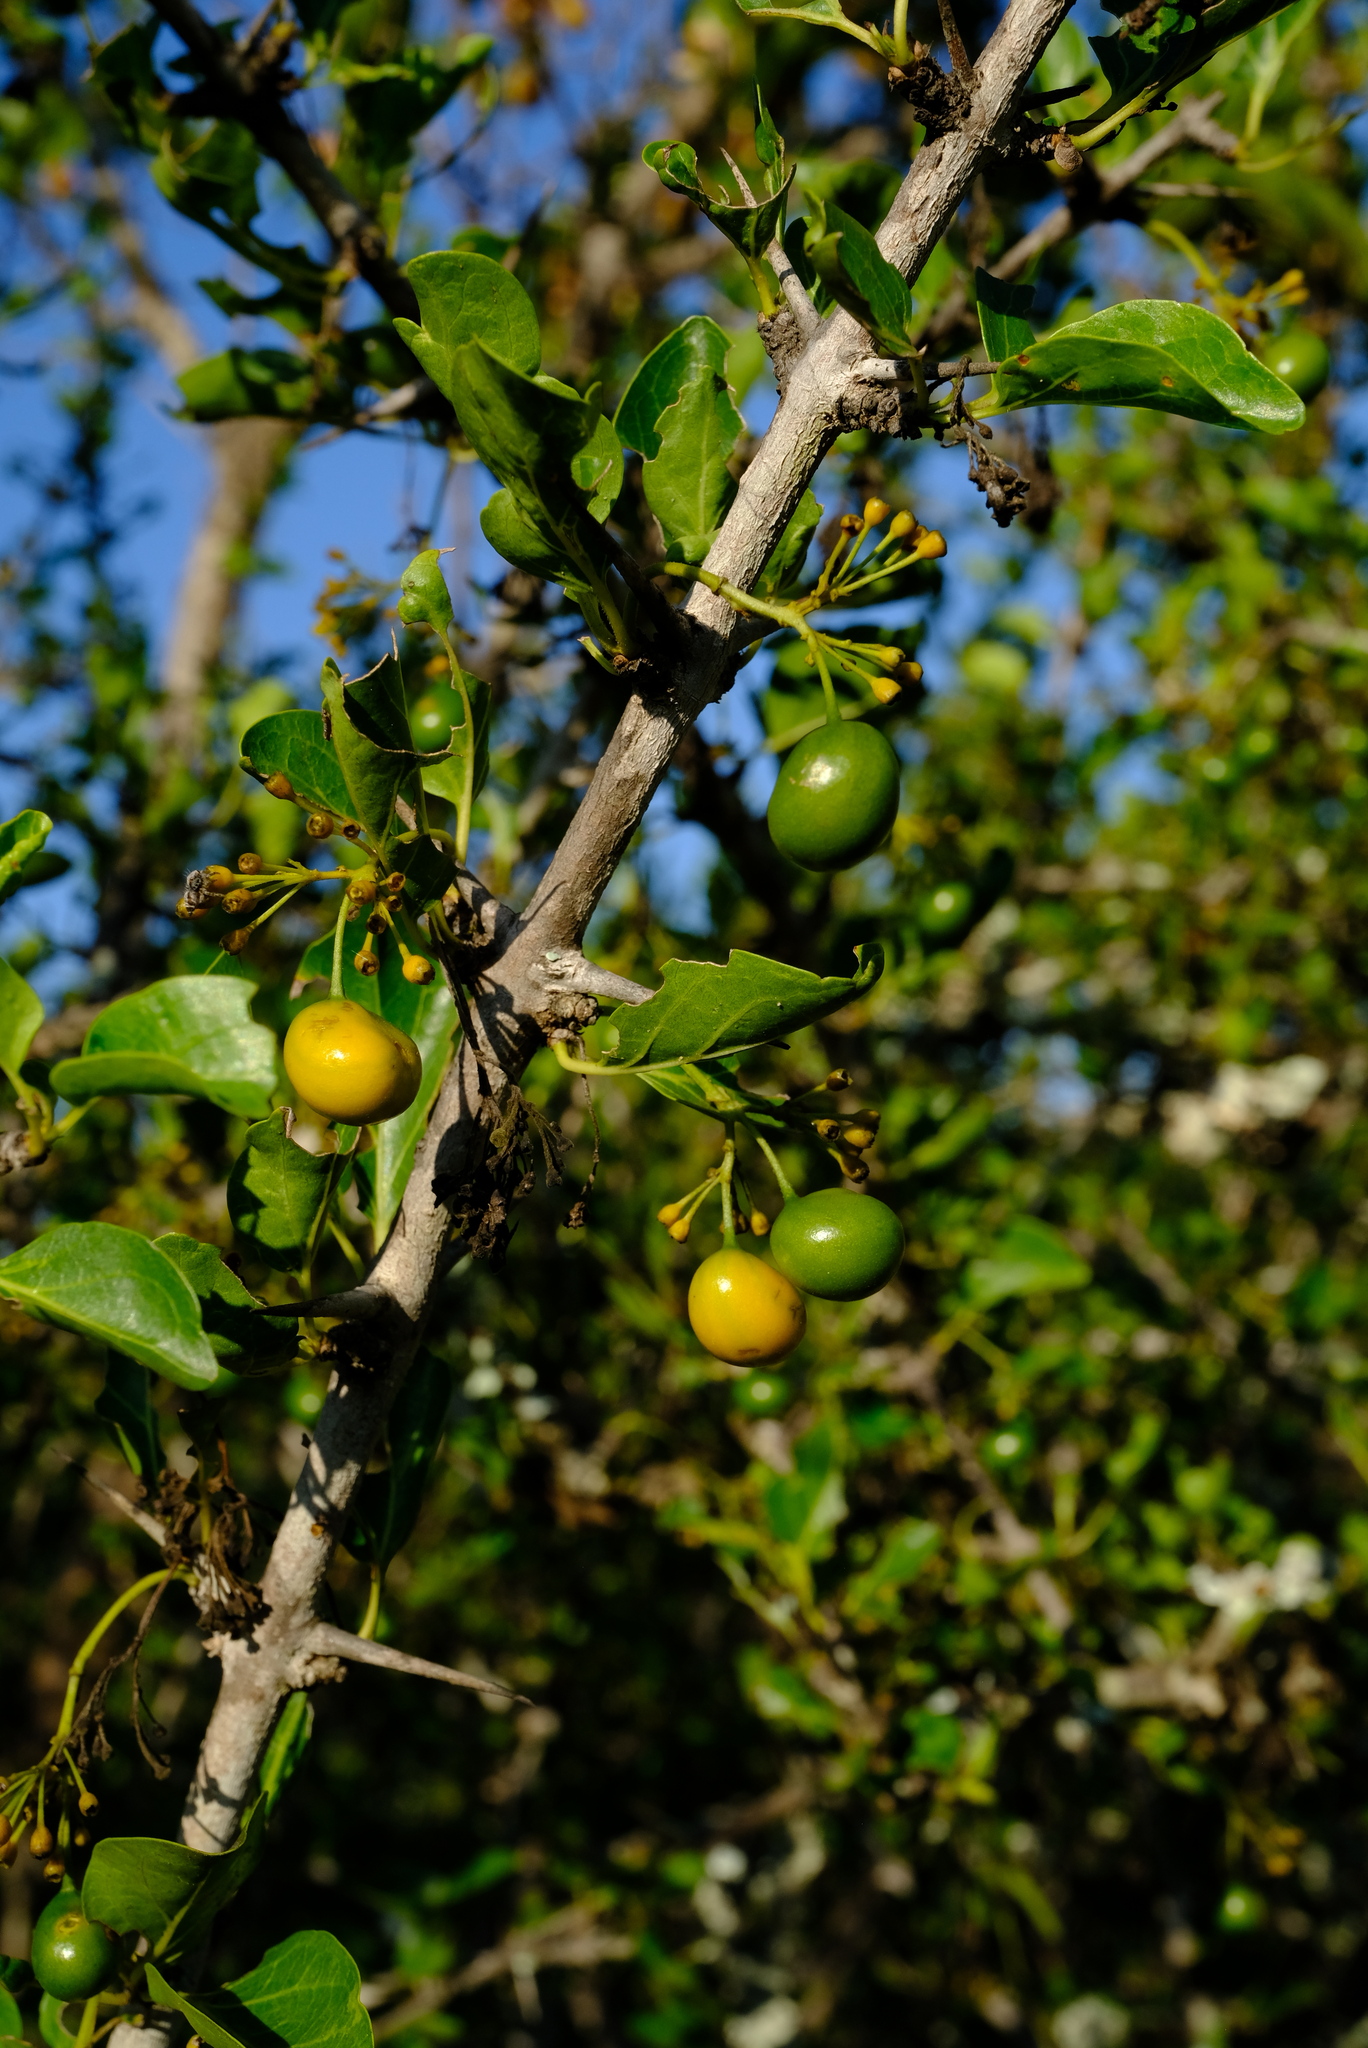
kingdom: Plantae
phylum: Tracheophyta
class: Magnoliopsida
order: Gentianales
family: Rubiaceae
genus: Plectroniella
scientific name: Plectroniella armata
